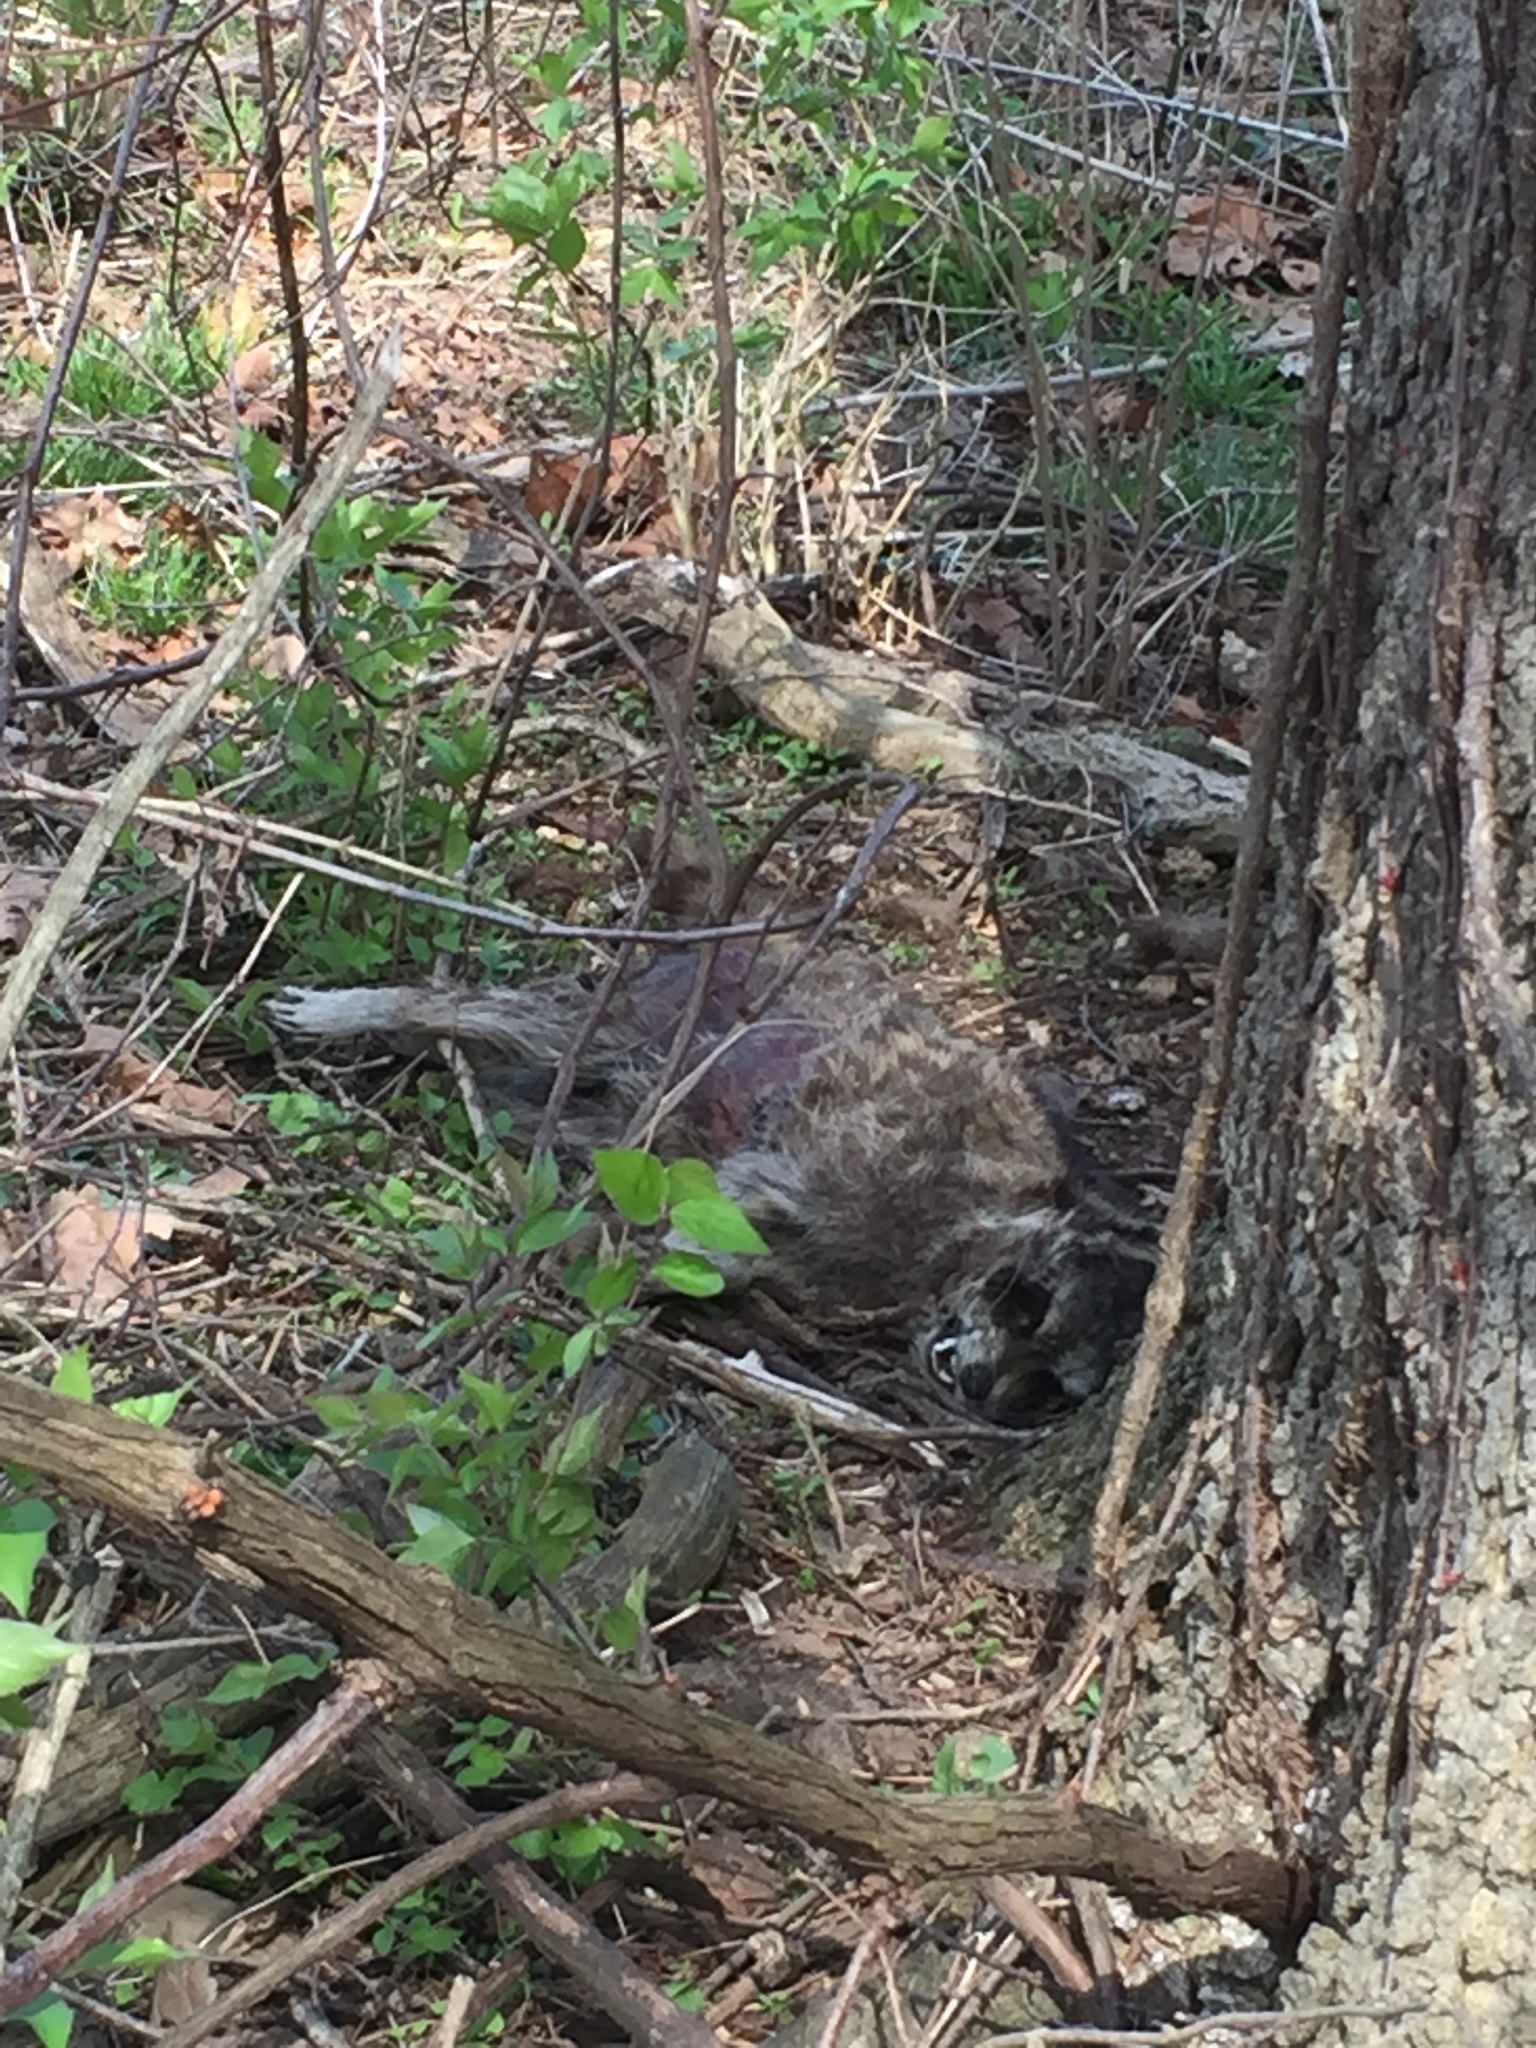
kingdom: Animalia
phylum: Chordata
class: Mammalia
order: Carnivora
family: Procyonidae
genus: Procyon
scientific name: Procyon lotor
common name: Raccoon
